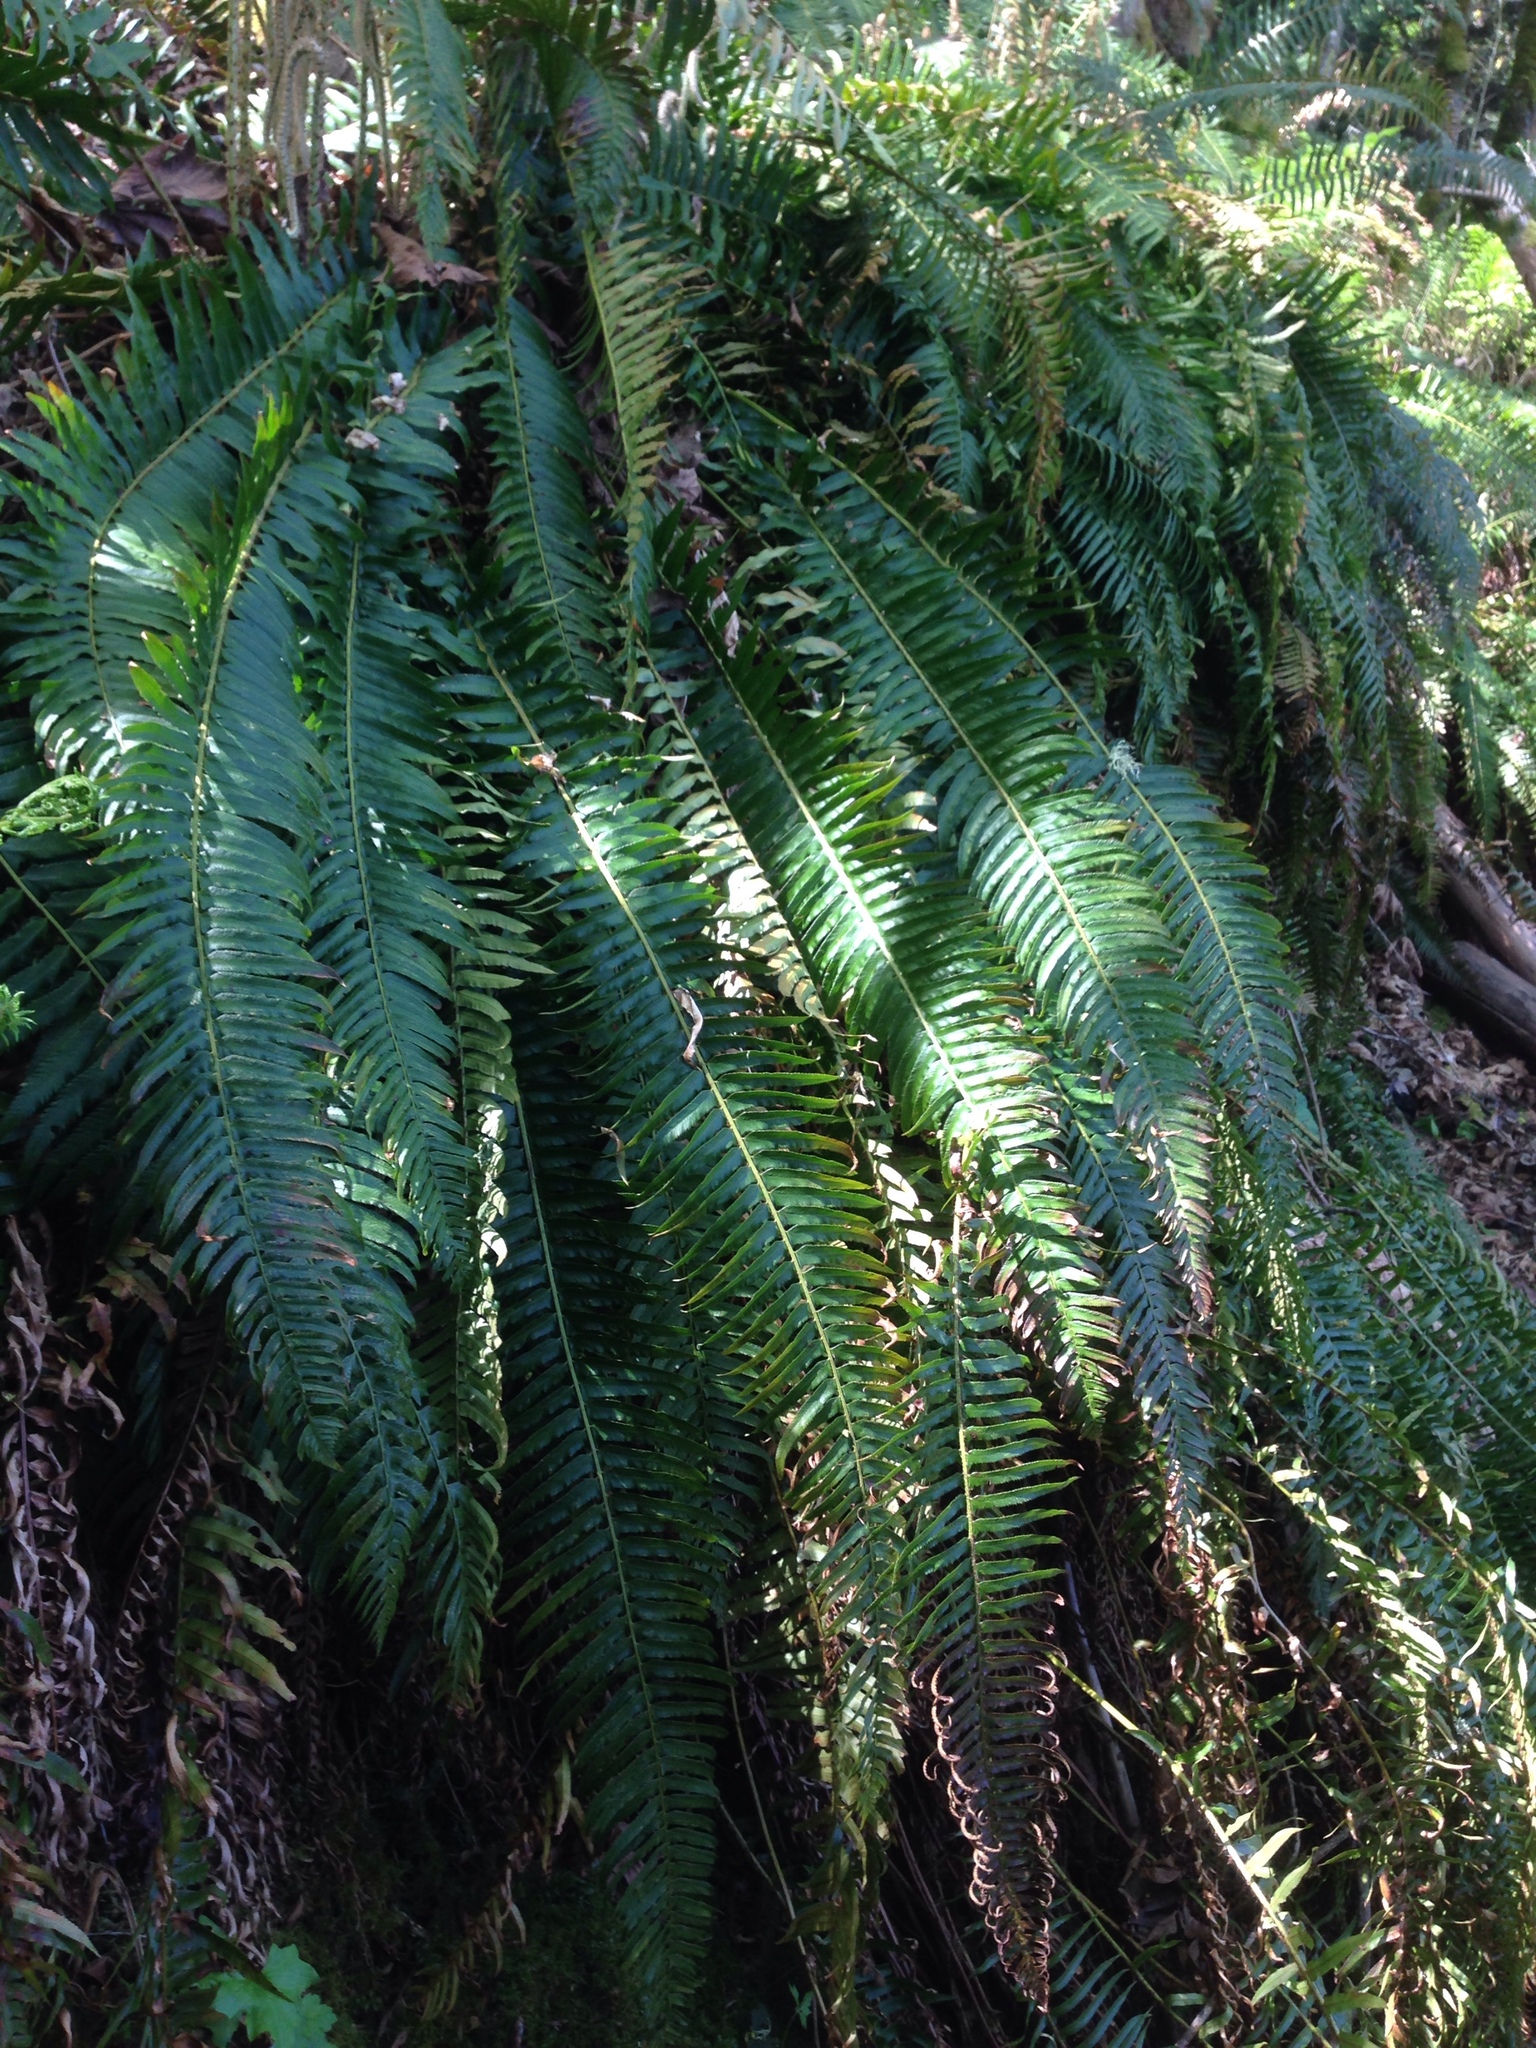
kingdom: Plantae
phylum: Tracheophyta
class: Polypodiopsida
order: Polypodiales
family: Dryopteridaceae
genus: Polystichum
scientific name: Polystichum munitum
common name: Western sword-fern
